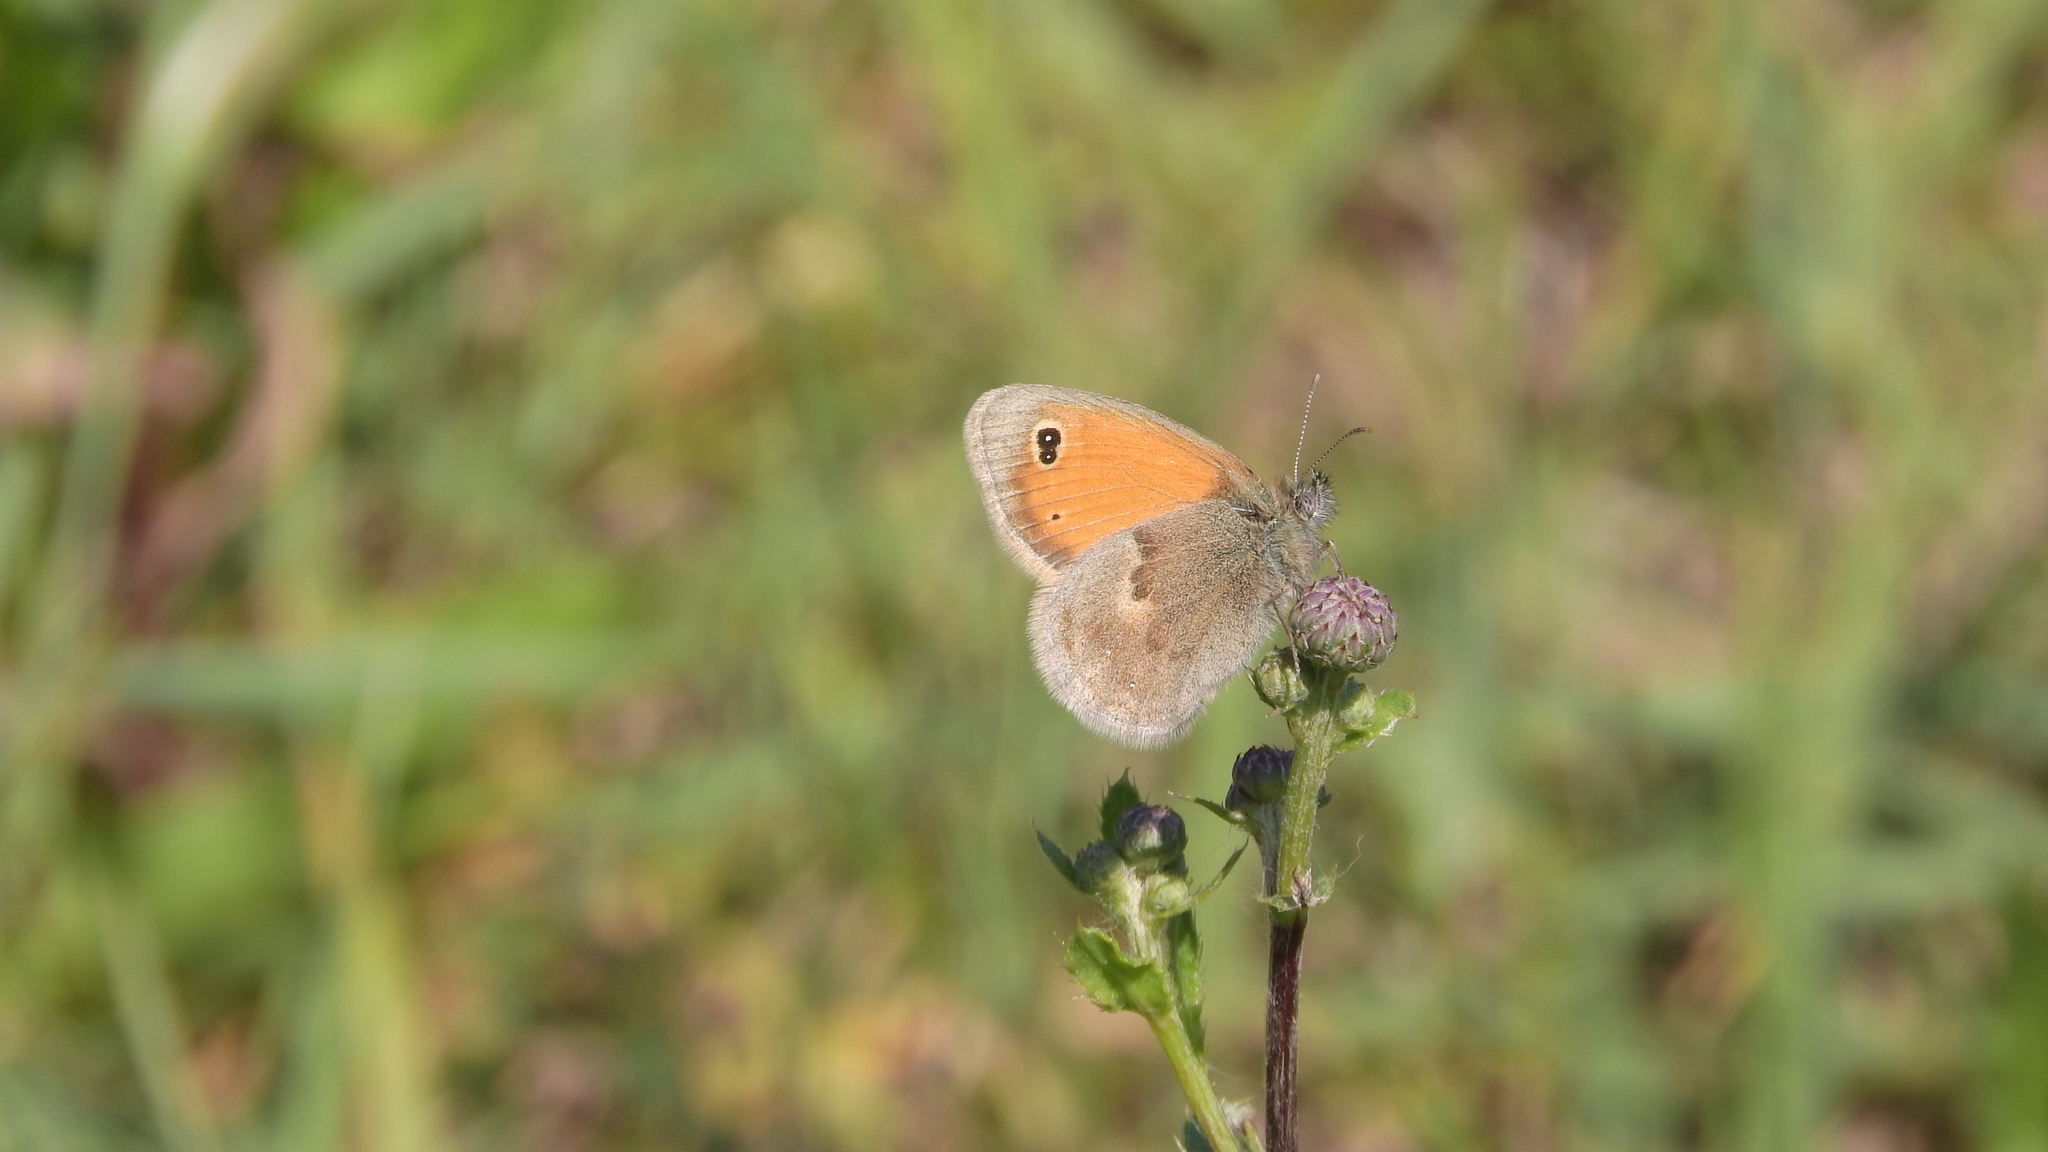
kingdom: Animalia
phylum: Arthropoda
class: Insecta
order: Lepidoptera
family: Nymphalidae
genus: Coenonympha
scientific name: Coenonympha pamphilus
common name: Small heath
